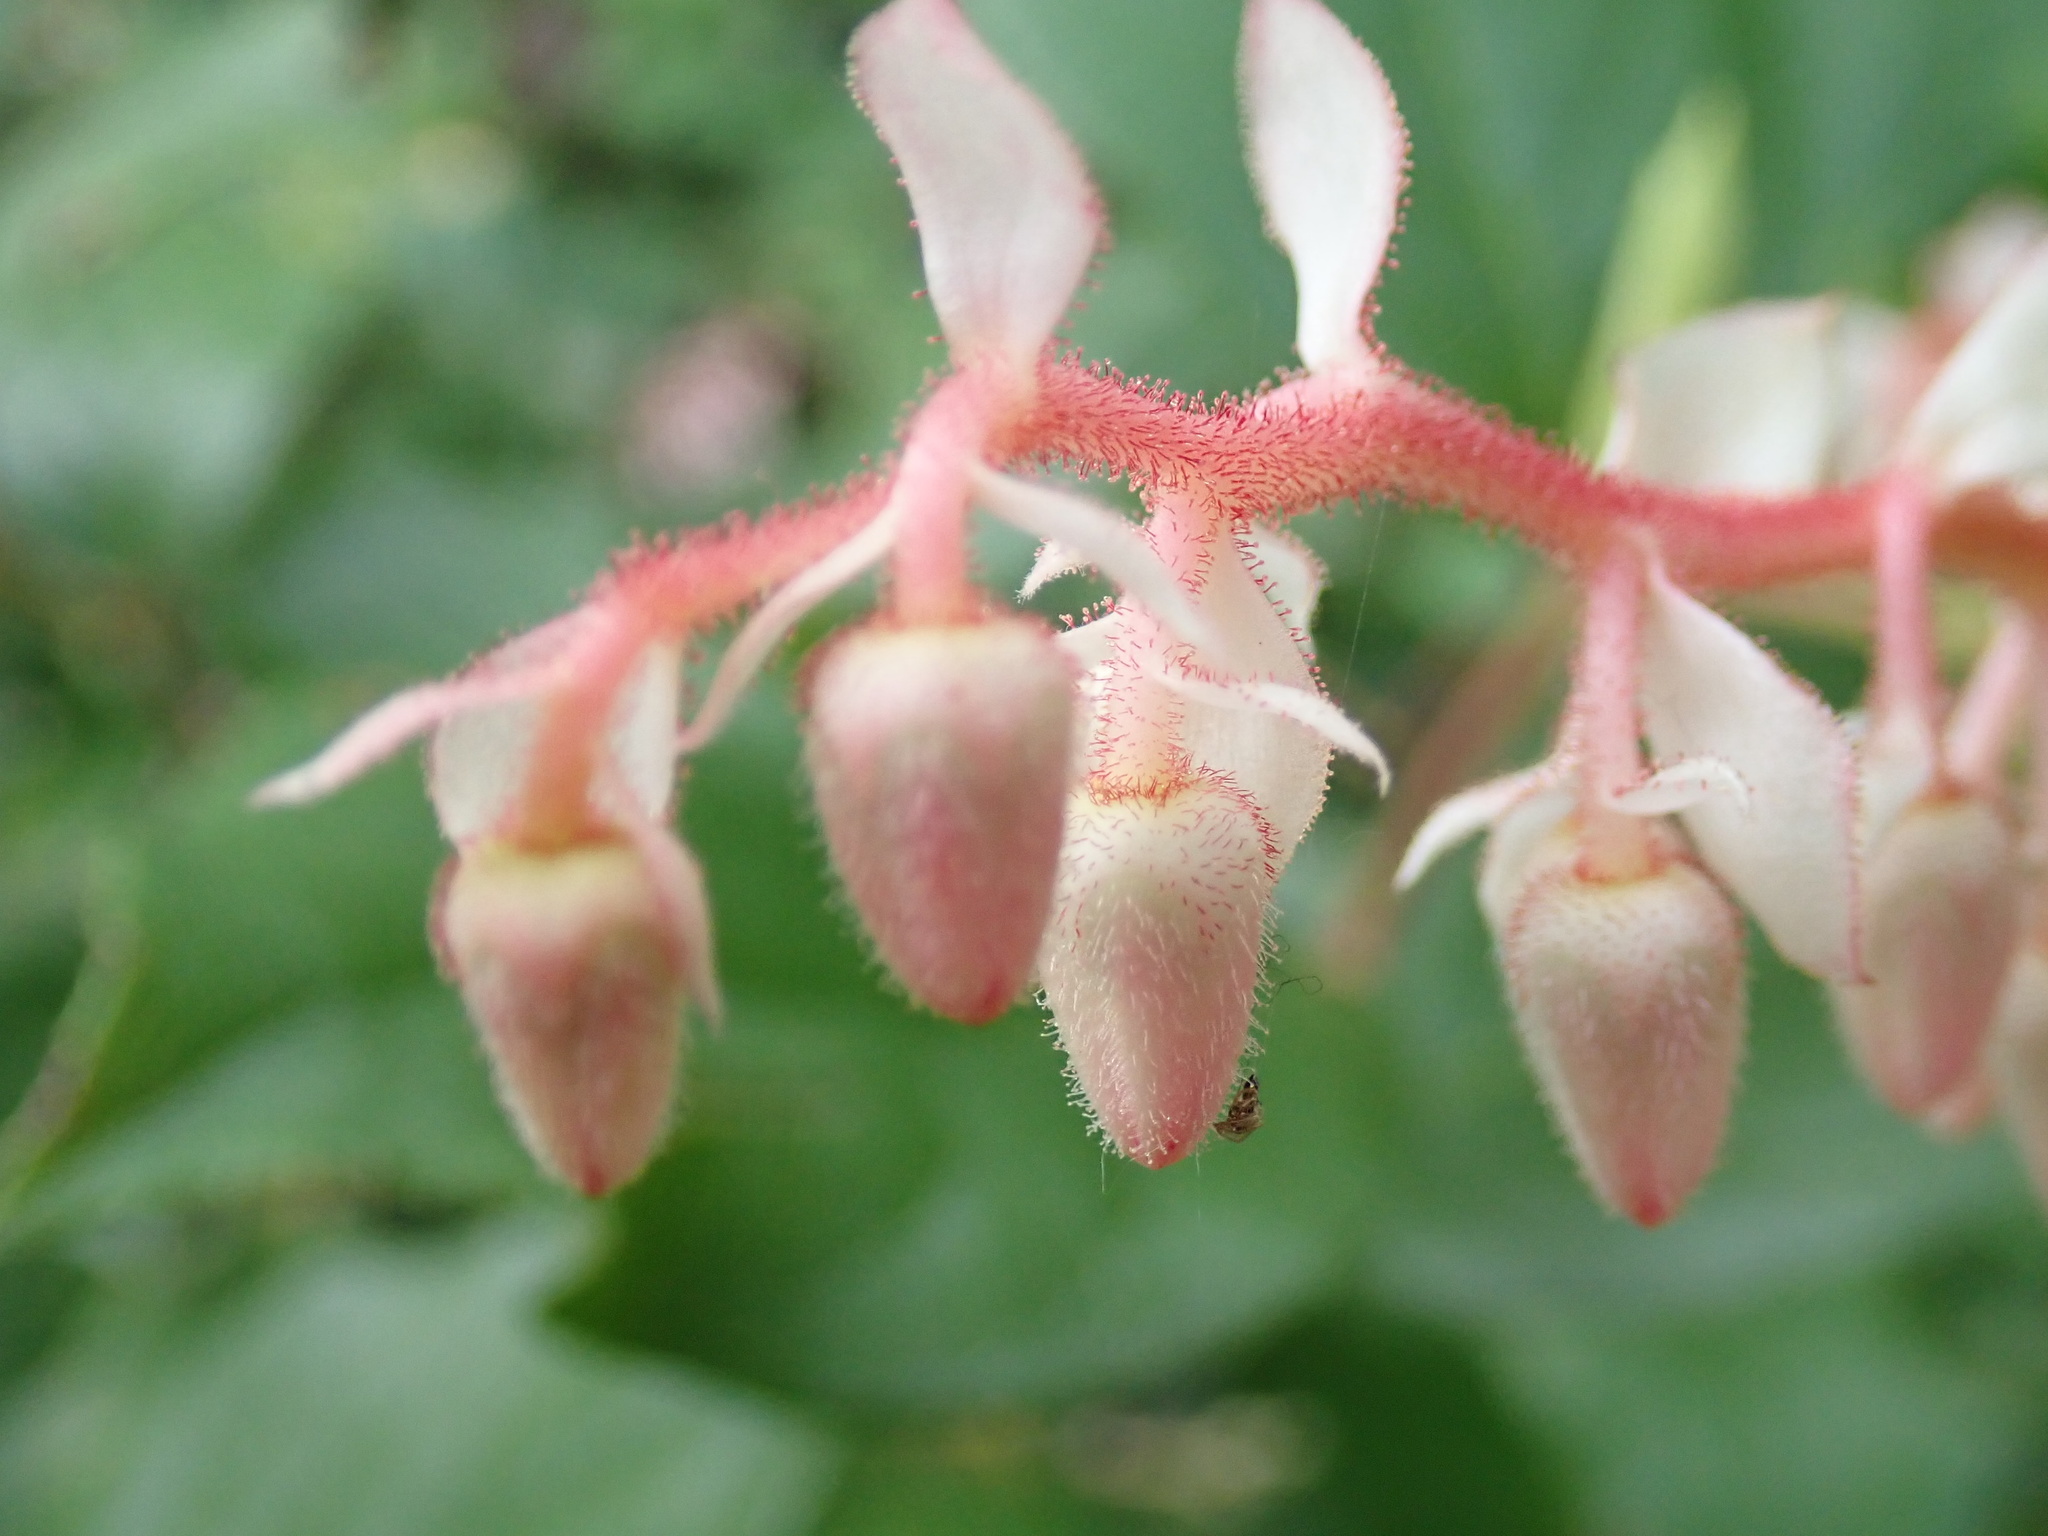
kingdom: Plantae
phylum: Tracheophyta
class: Magnoliopsida
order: Ericales
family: Ericaceae
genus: Gaultheria
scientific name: Gaultheria shallon
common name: Shallon
